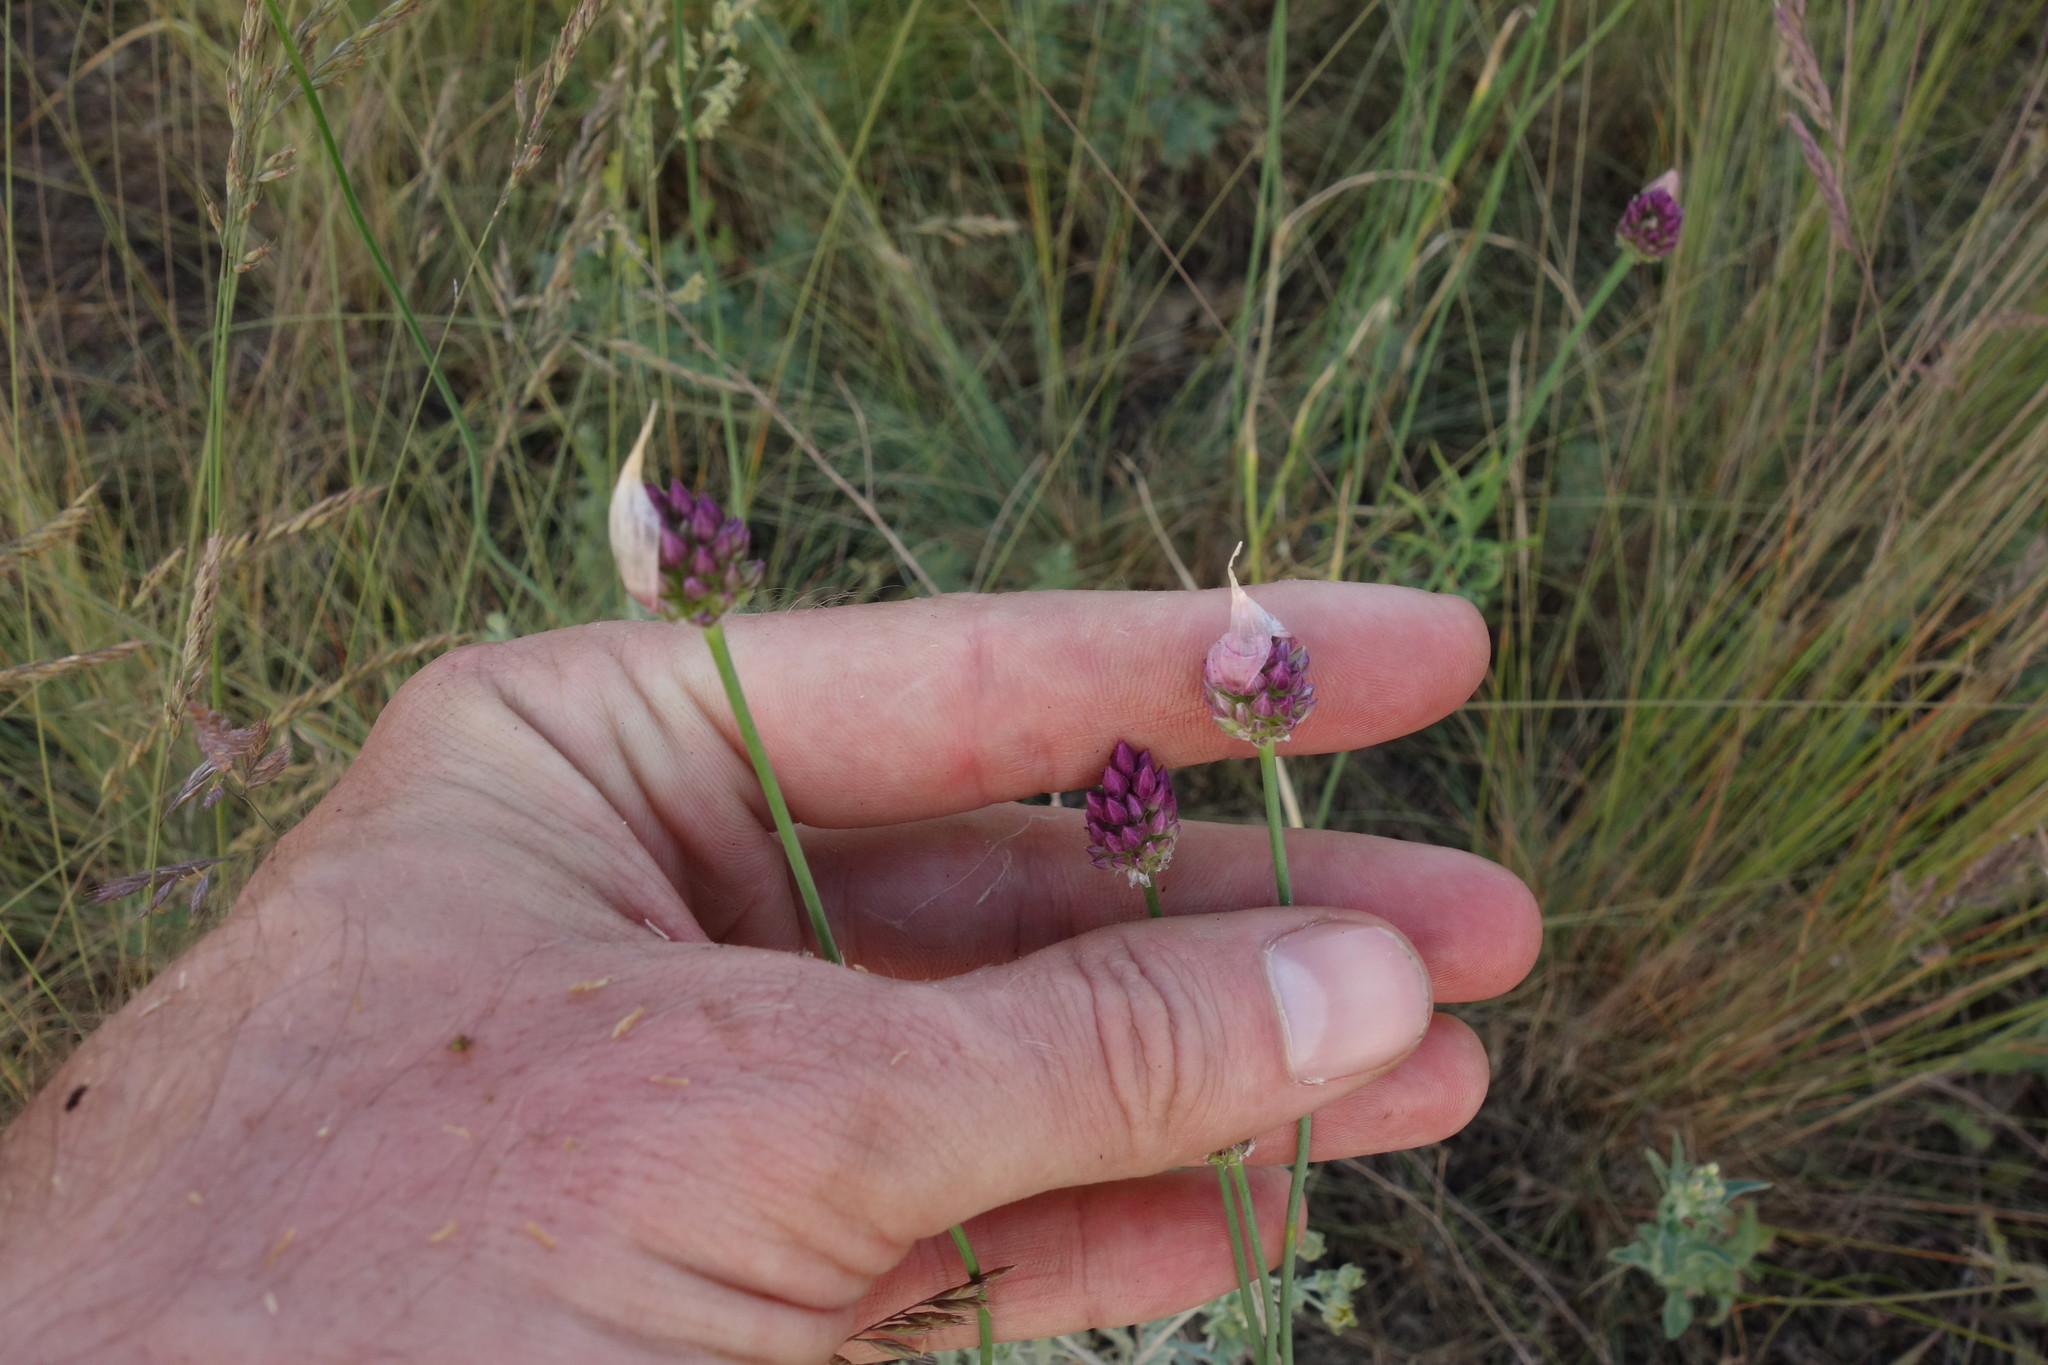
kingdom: Plantae
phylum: Tracheophyta
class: Liliopsida
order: Asparagales
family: Amaryllidaceae
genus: Allium
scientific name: Allium rotundum
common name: Sand leek
